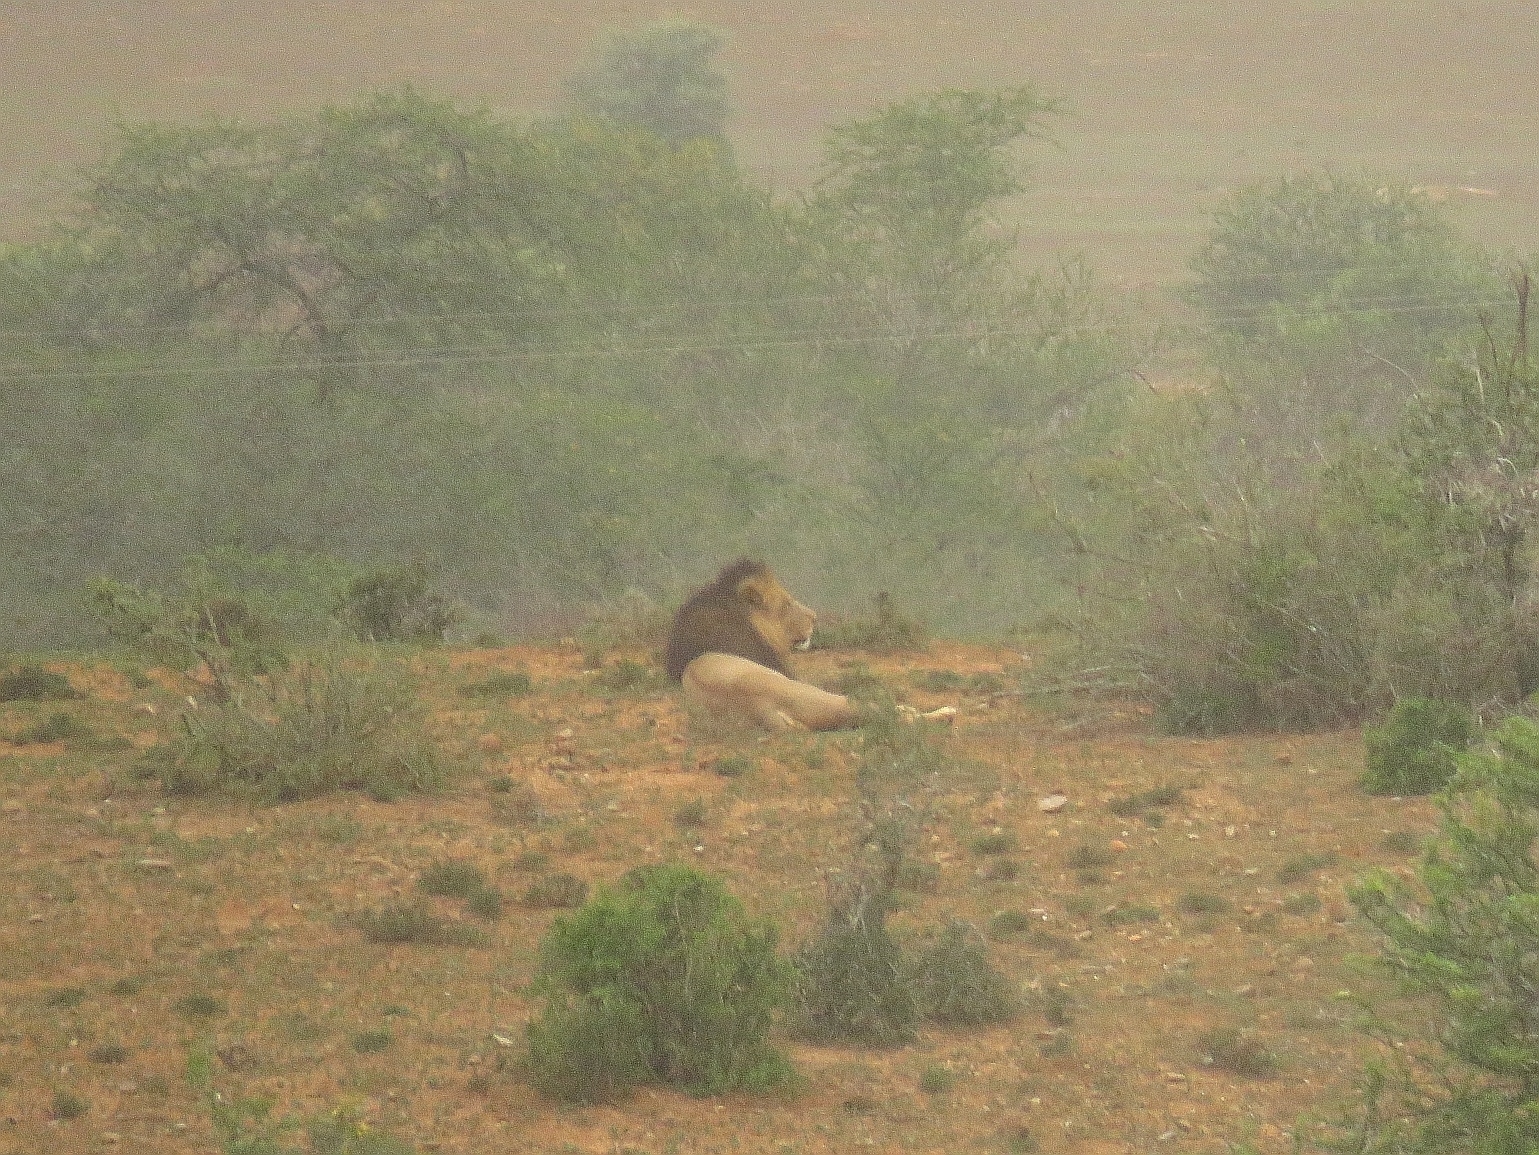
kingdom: Animalia
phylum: Chordata
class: Mammalia
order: Carnivora
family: Felidae
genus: Panthera
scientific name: Panthera leo
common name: Lion
